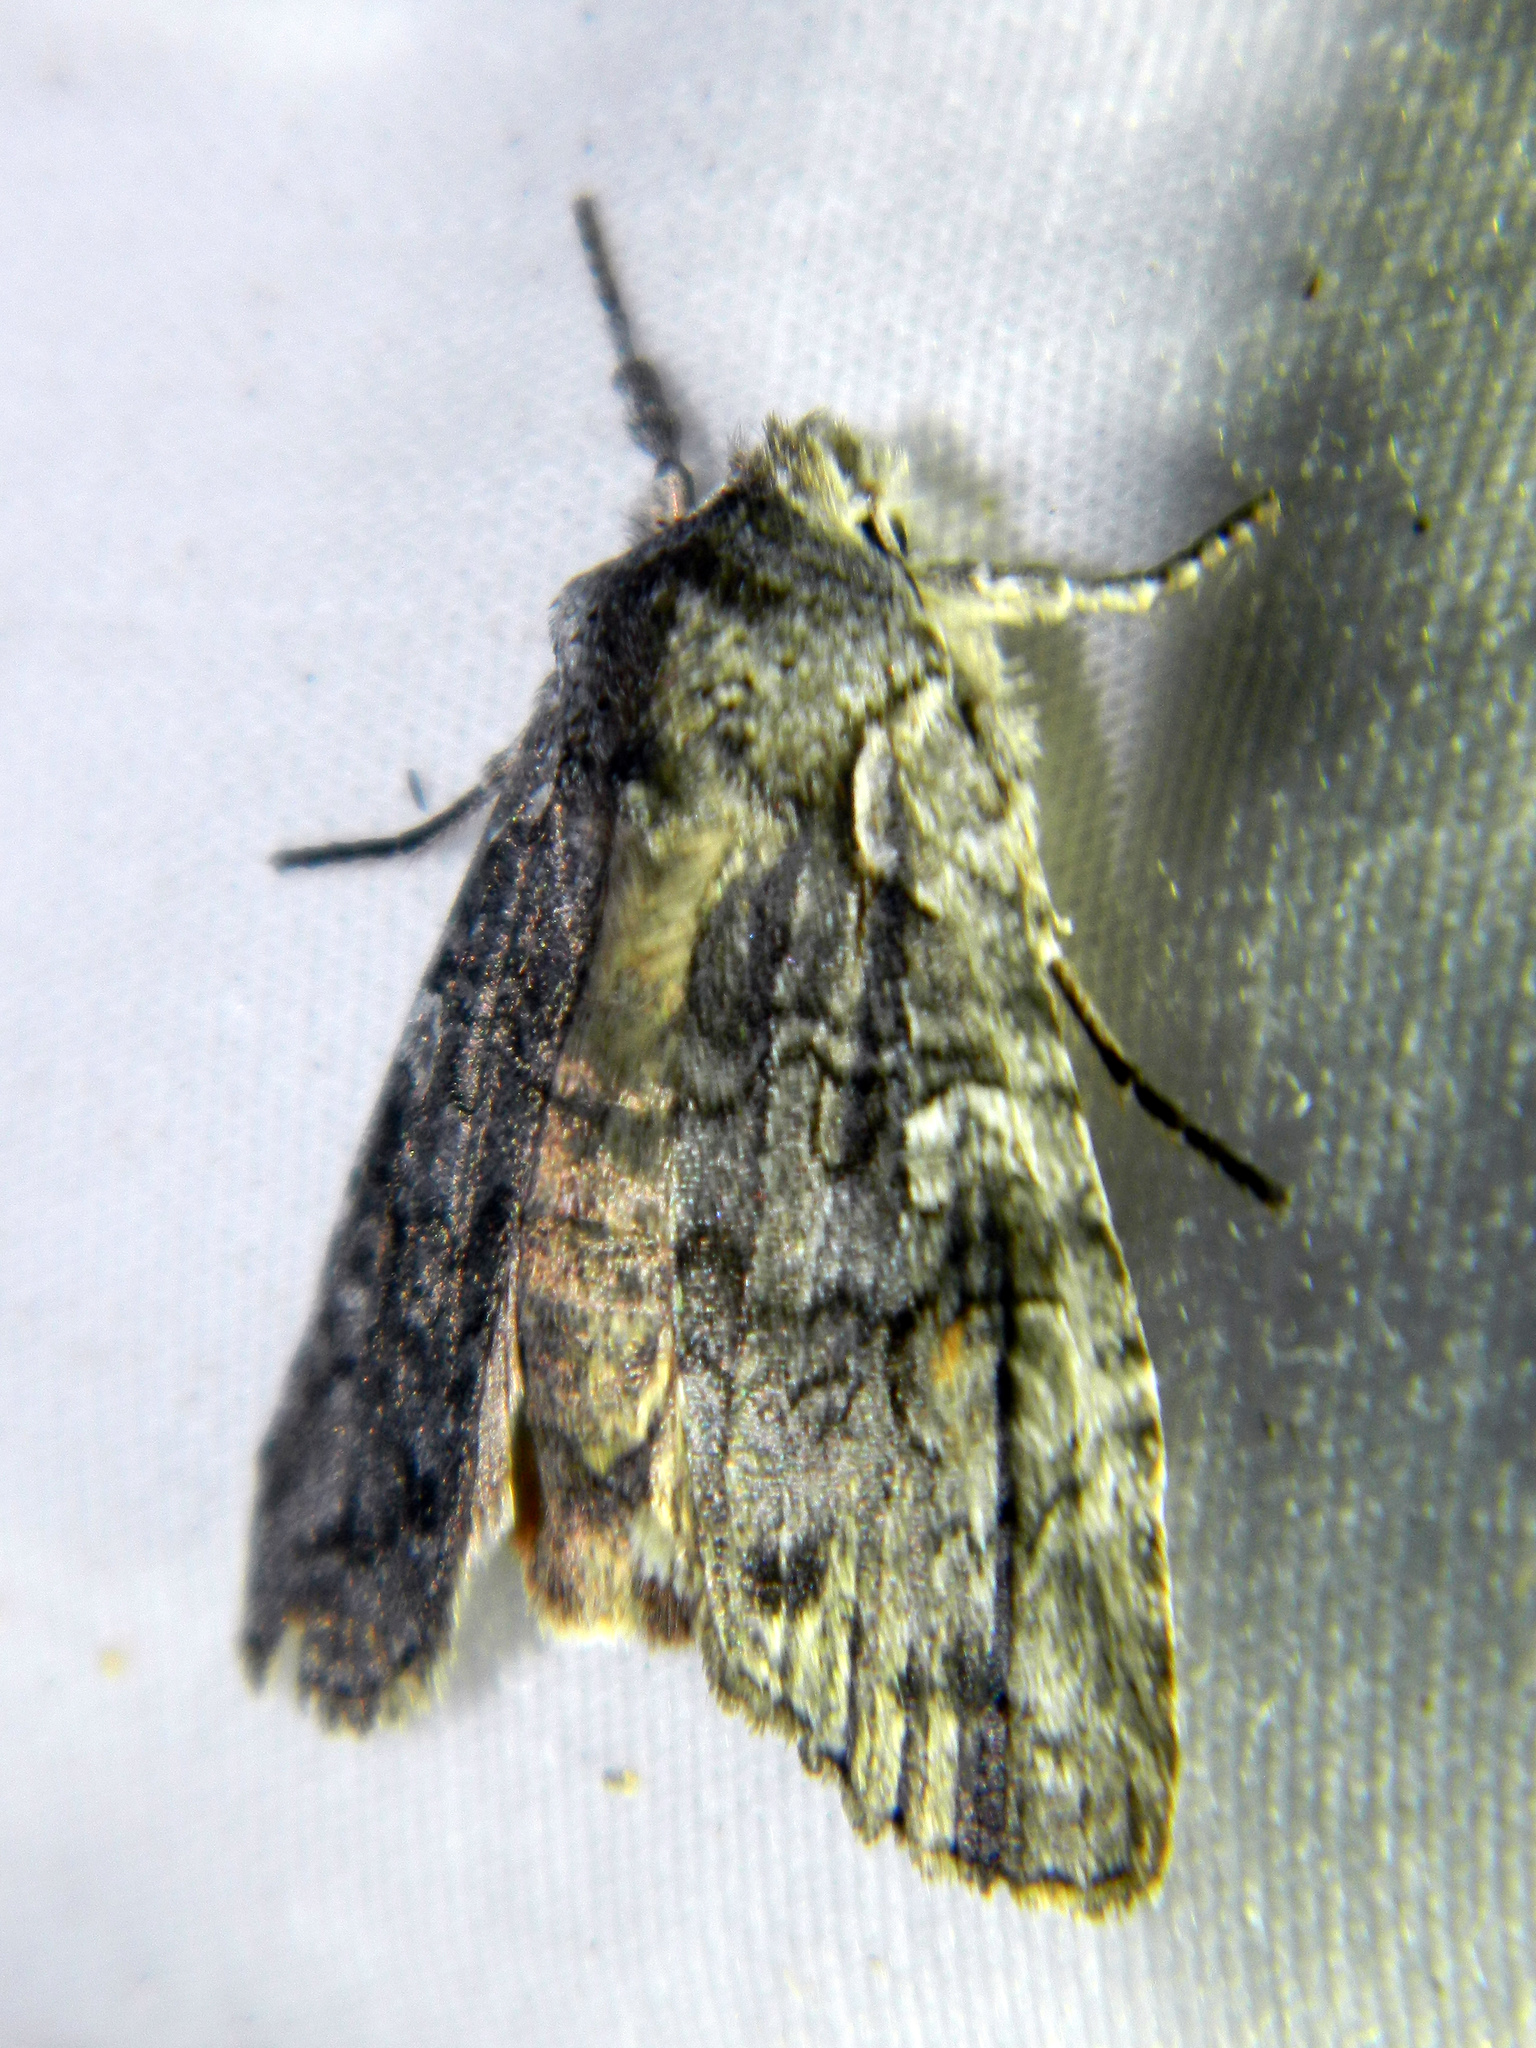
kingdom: Animalia
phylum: Arthropoda
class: Insecta
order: Lepidoptera
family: Noctuidae
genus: Lithophane
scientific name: Lithophane baileyi
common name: Bailey's pinion moth
